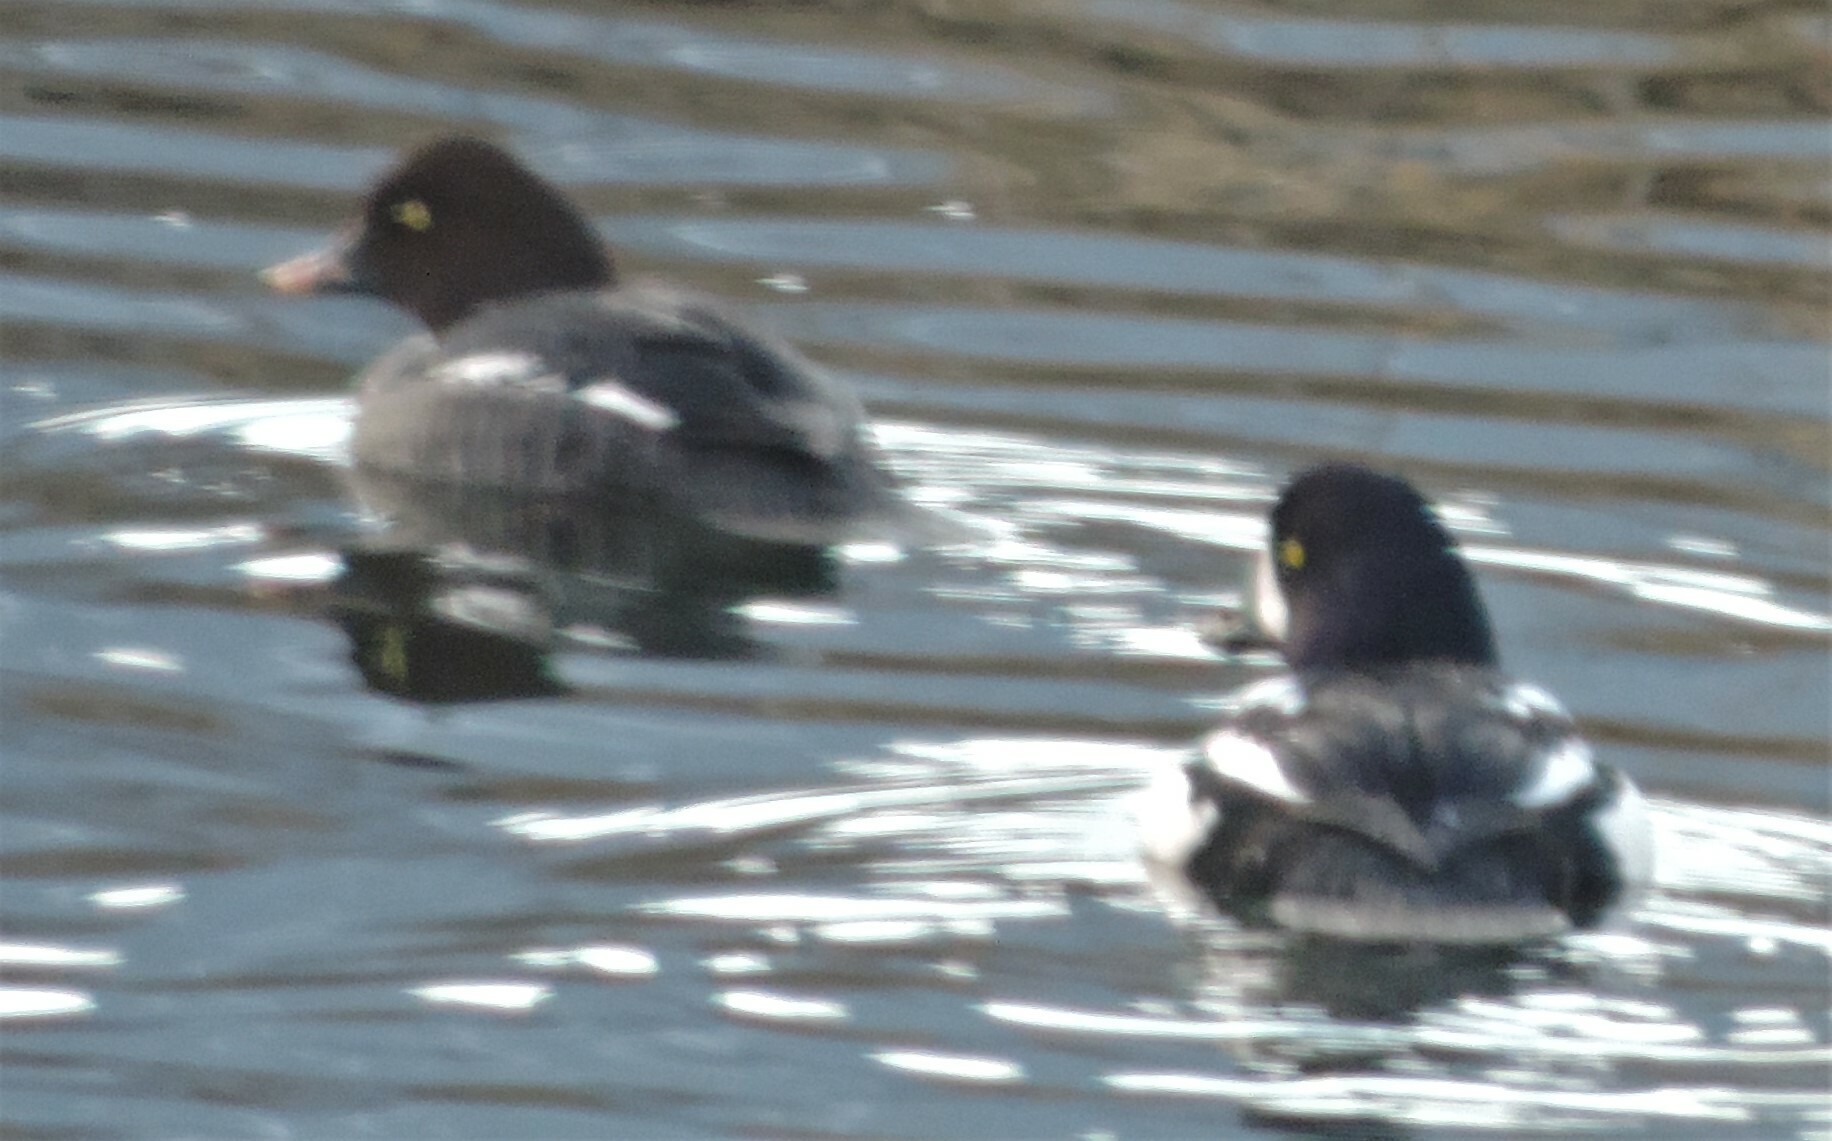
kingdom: Animalia
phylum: Chordata
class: Aves
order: Anseriformes
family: Anatidae
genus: Bucephala
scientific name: Bucephala clangula
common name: Common goldeneye
